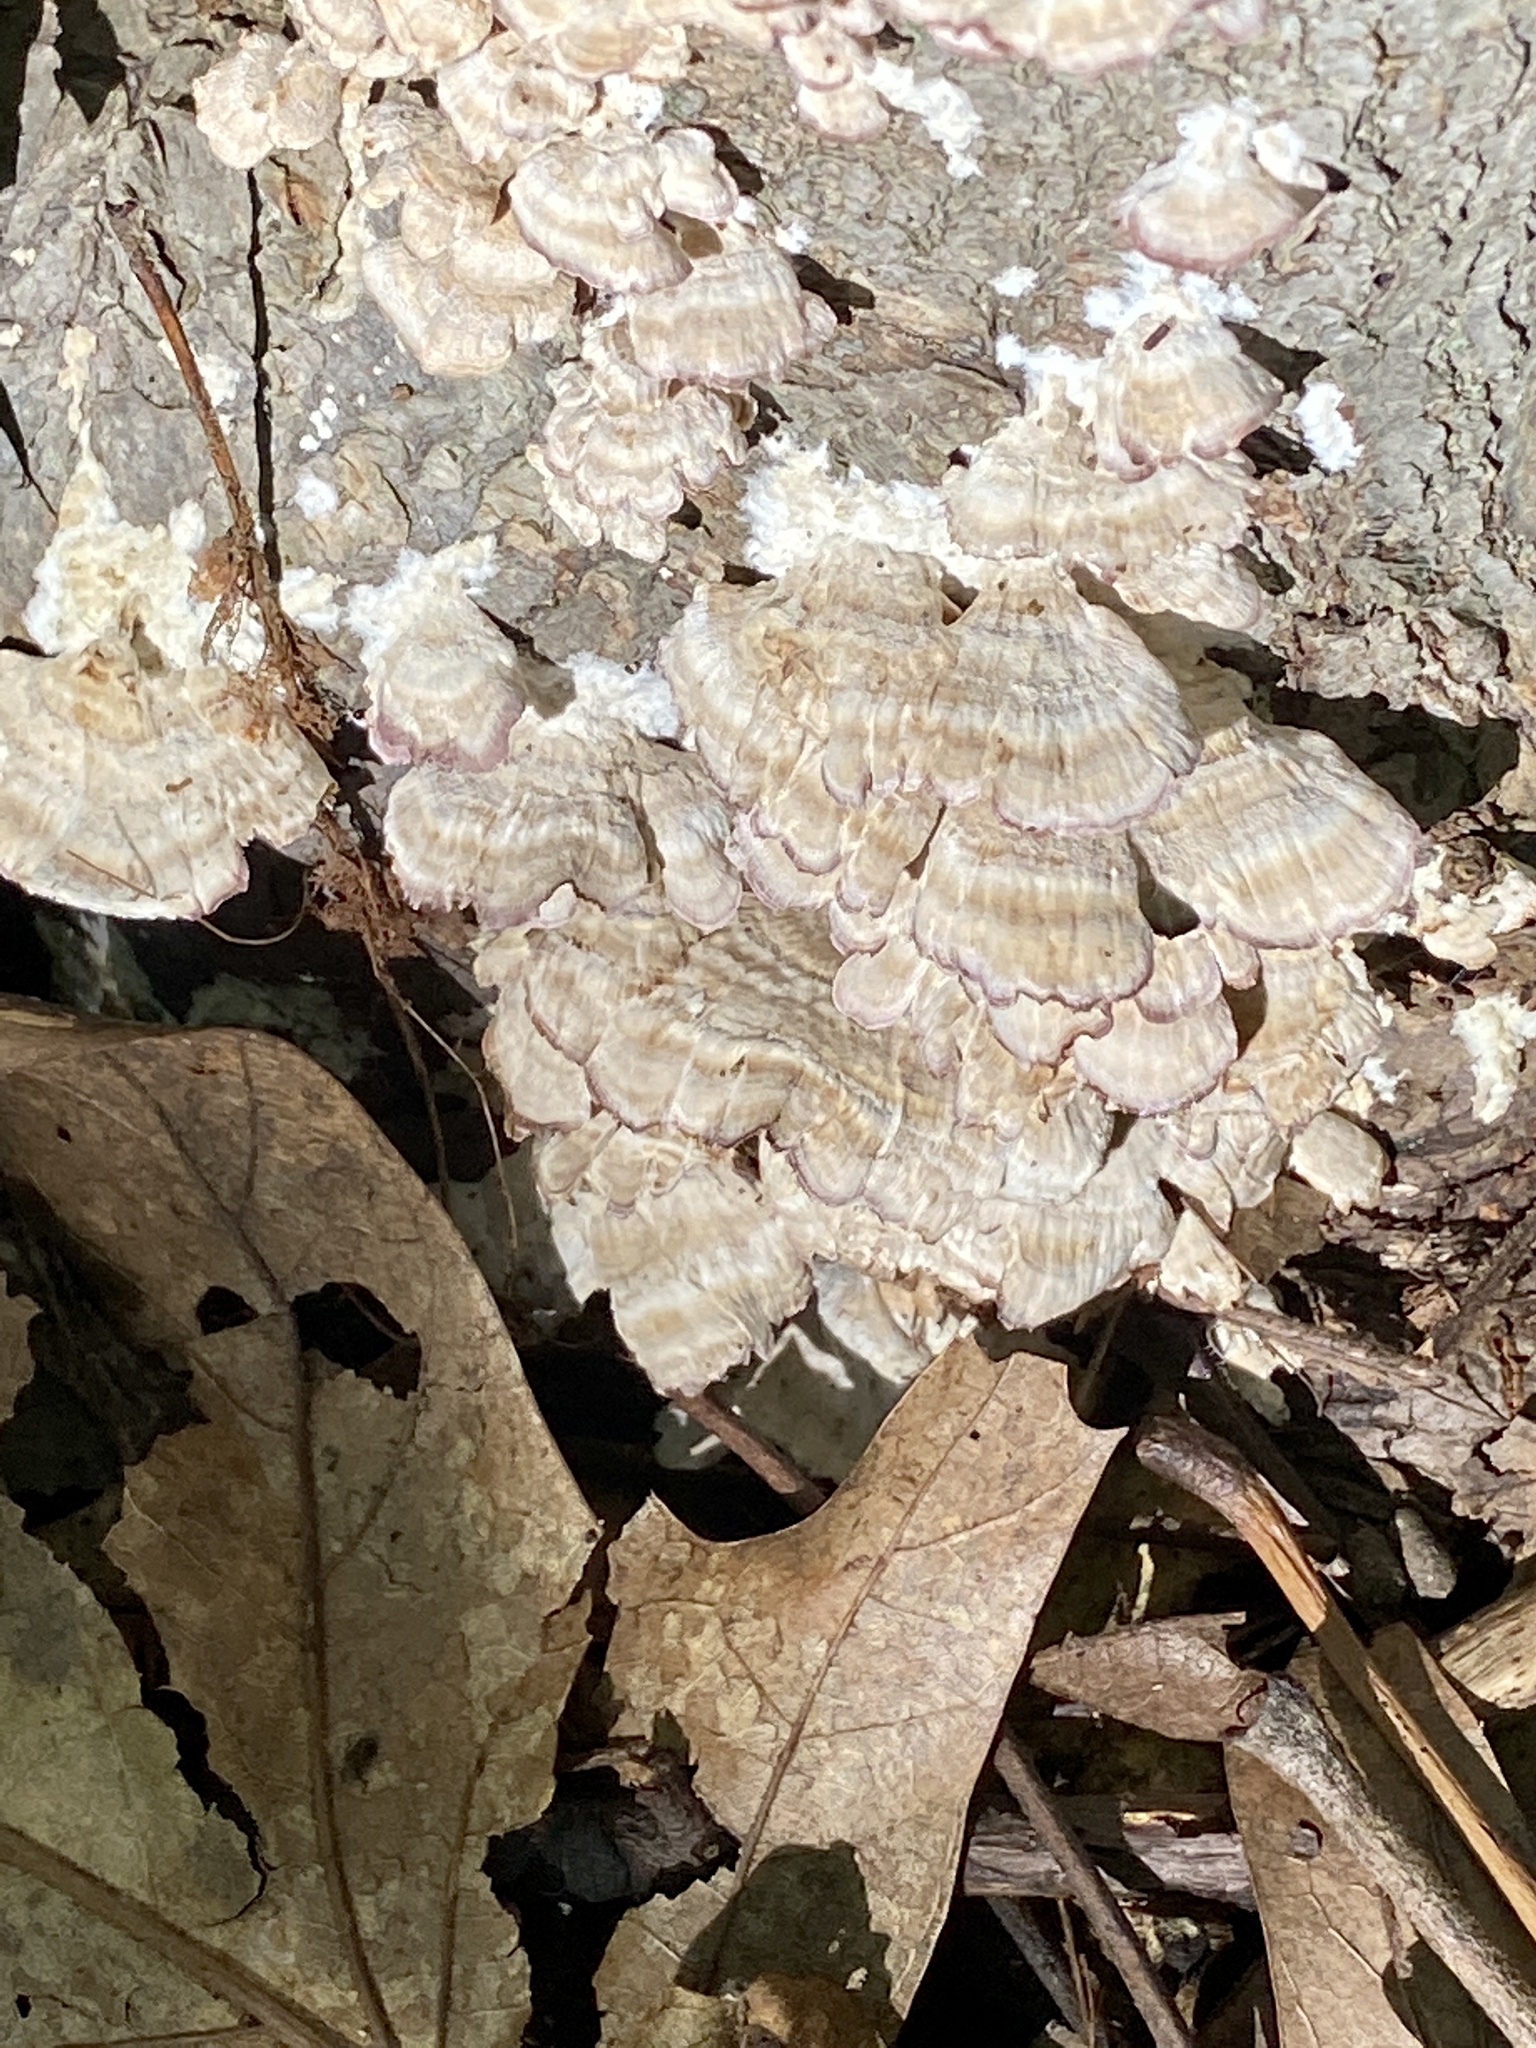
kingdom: Fungi
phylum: Basidiomycota
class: Agaricomycetes
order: Hymenochaetales
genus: Trichaptum
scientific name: Trichaptum biforme
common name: Violet-toothed polypore
